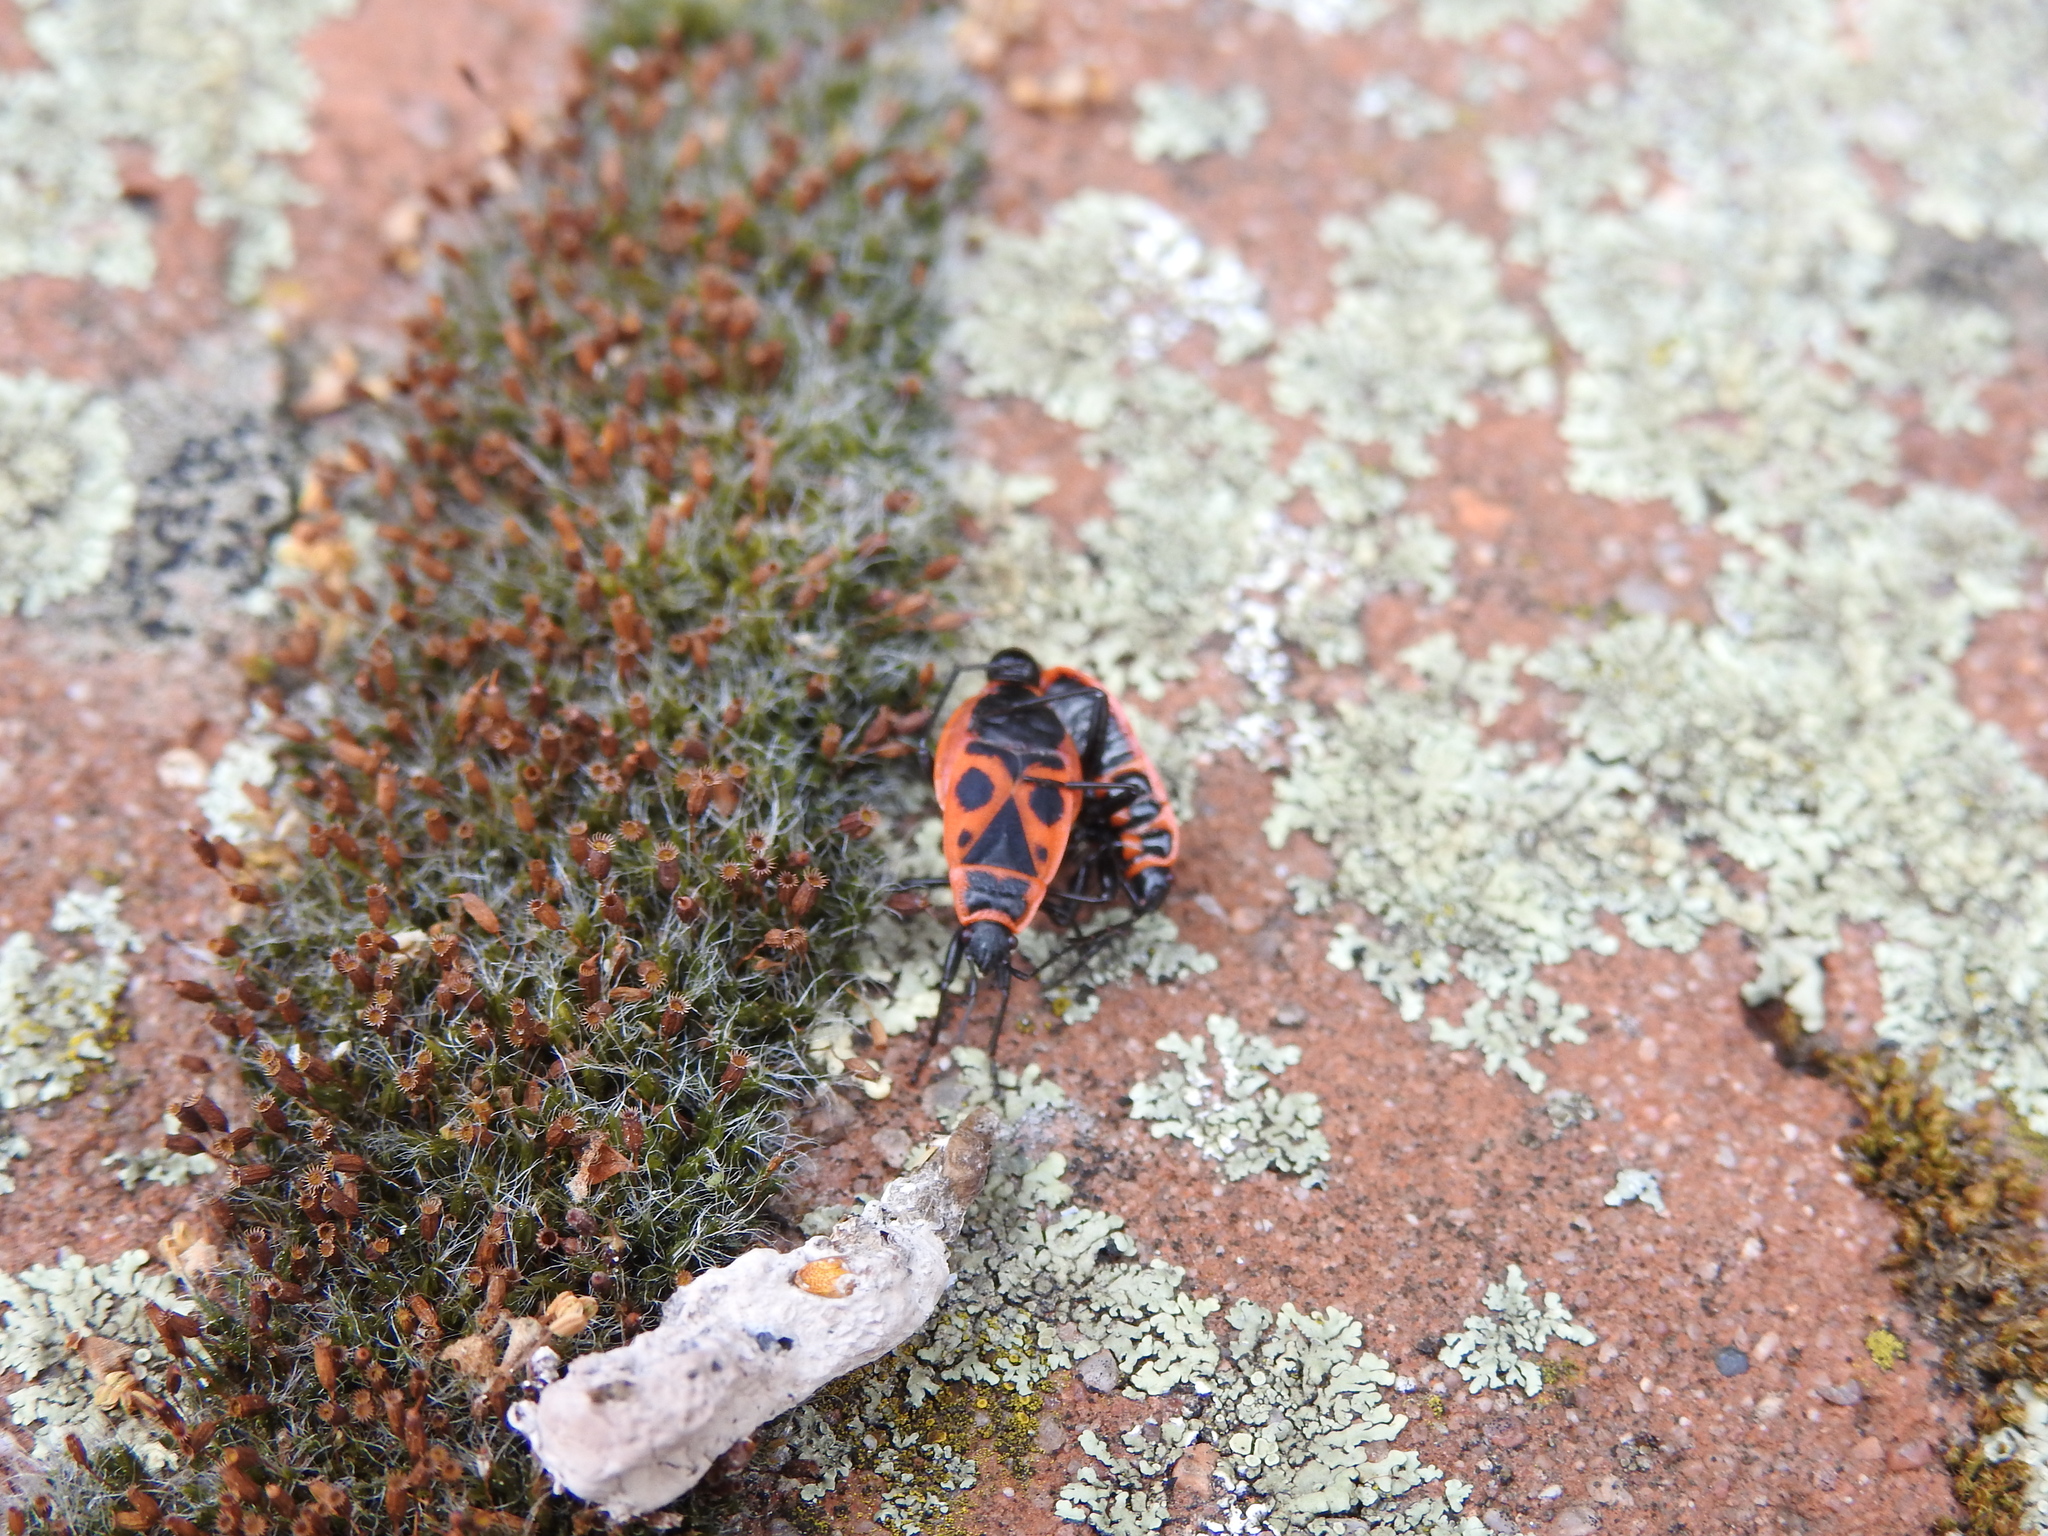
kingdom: Animalia
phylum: Arthropoda
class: Insecta
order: Hemiptera
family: Pyrrhocoridae
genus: Pyrrhocoris
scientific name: Pyrrhocoris apterus
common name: Firebug
